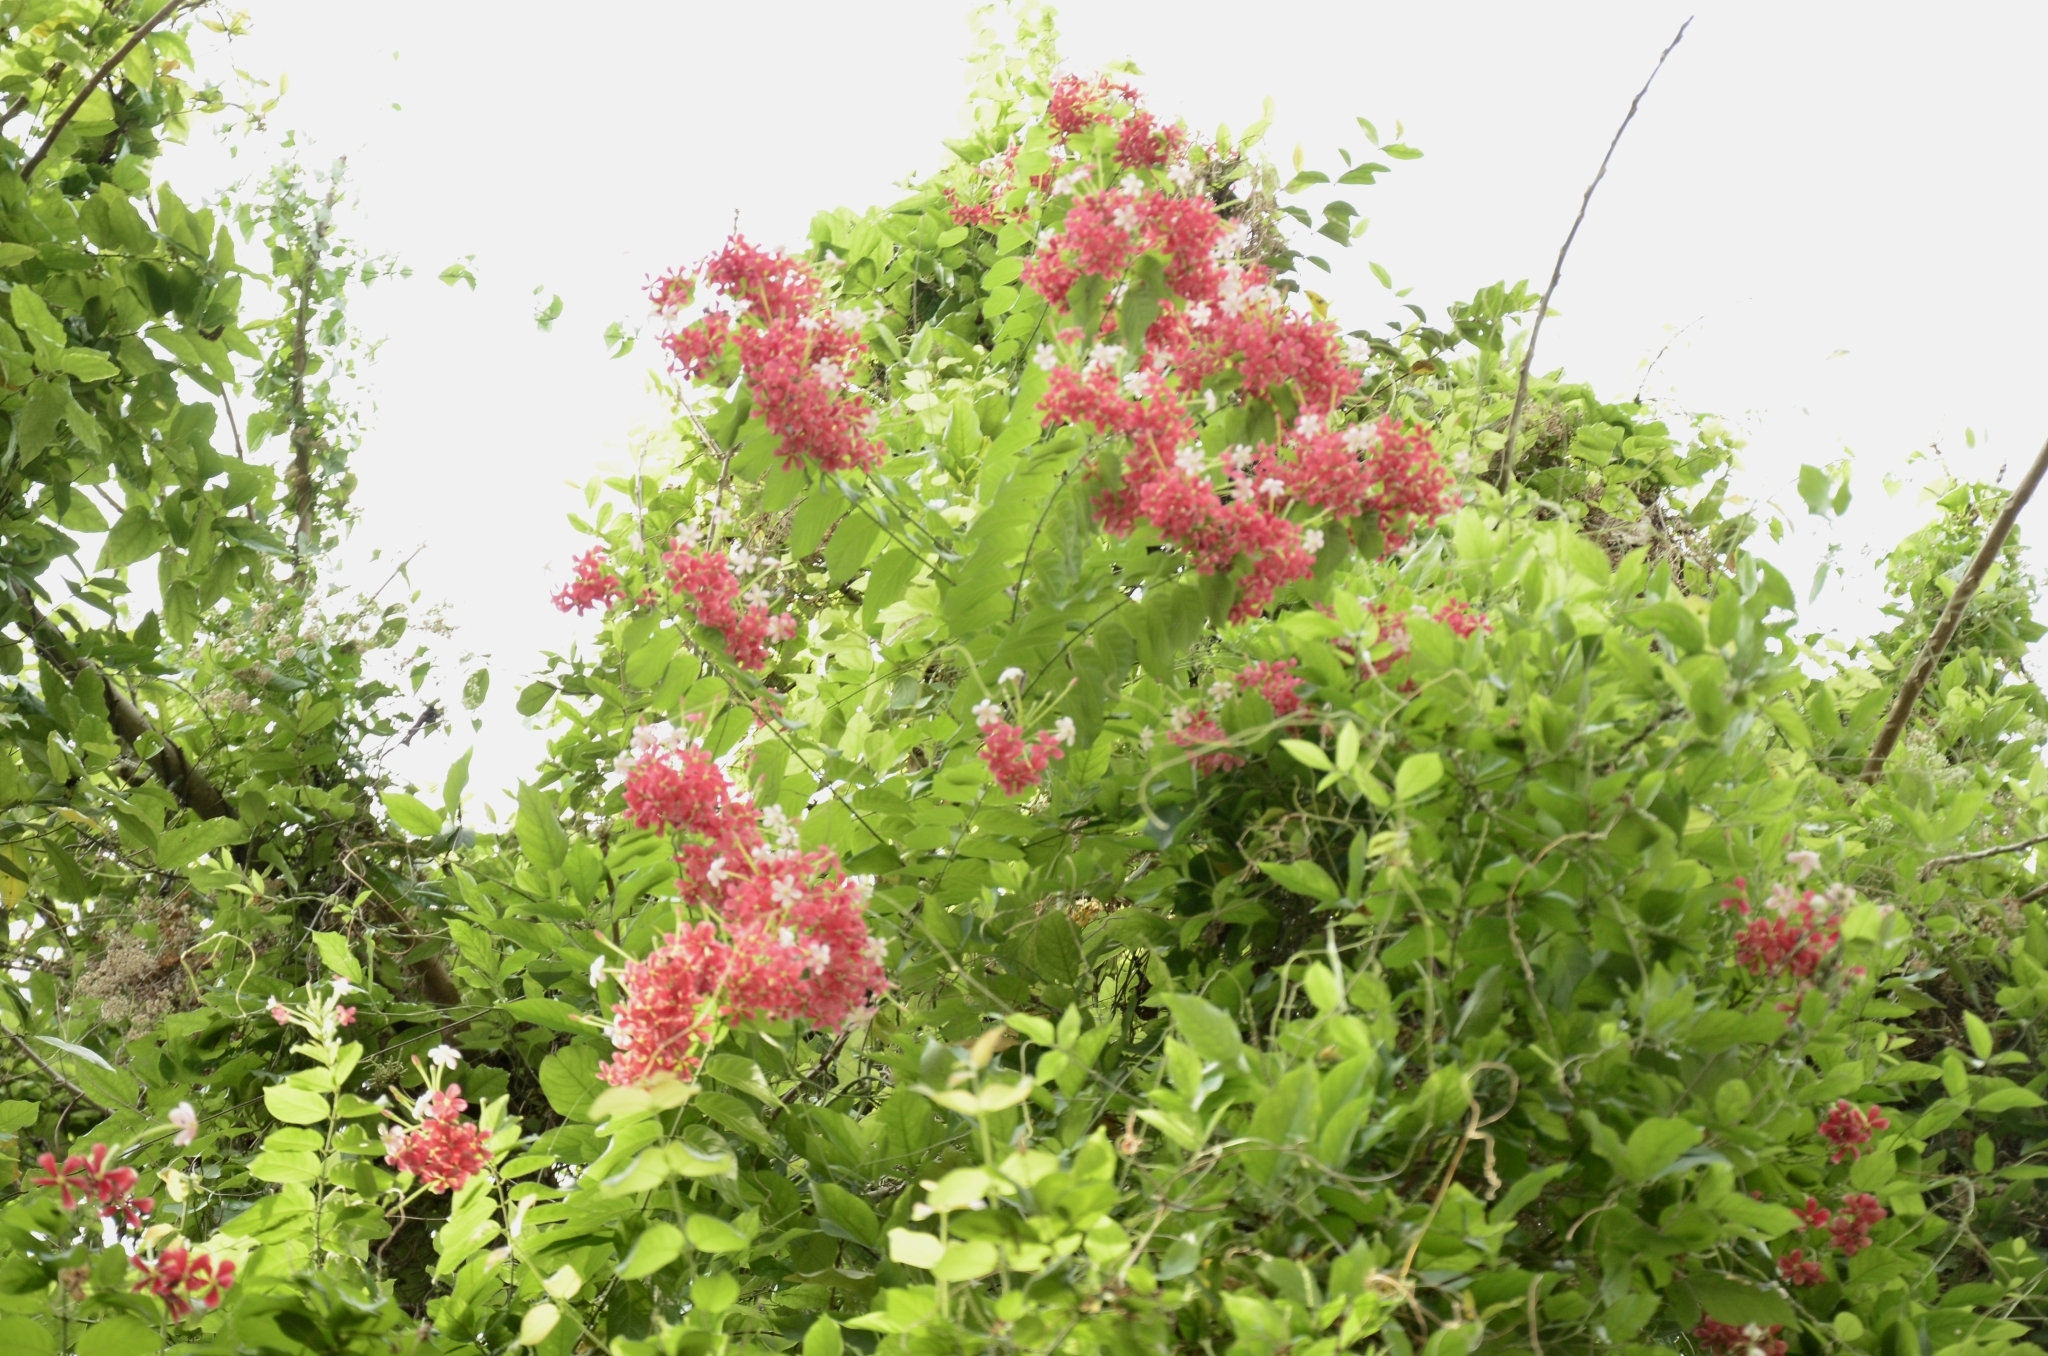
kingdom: Plantae
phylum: Tracheophyta
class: Magnoliopsida
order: Myrtales
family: Combretaceae
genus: Combretum
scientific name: Combretum indicum
